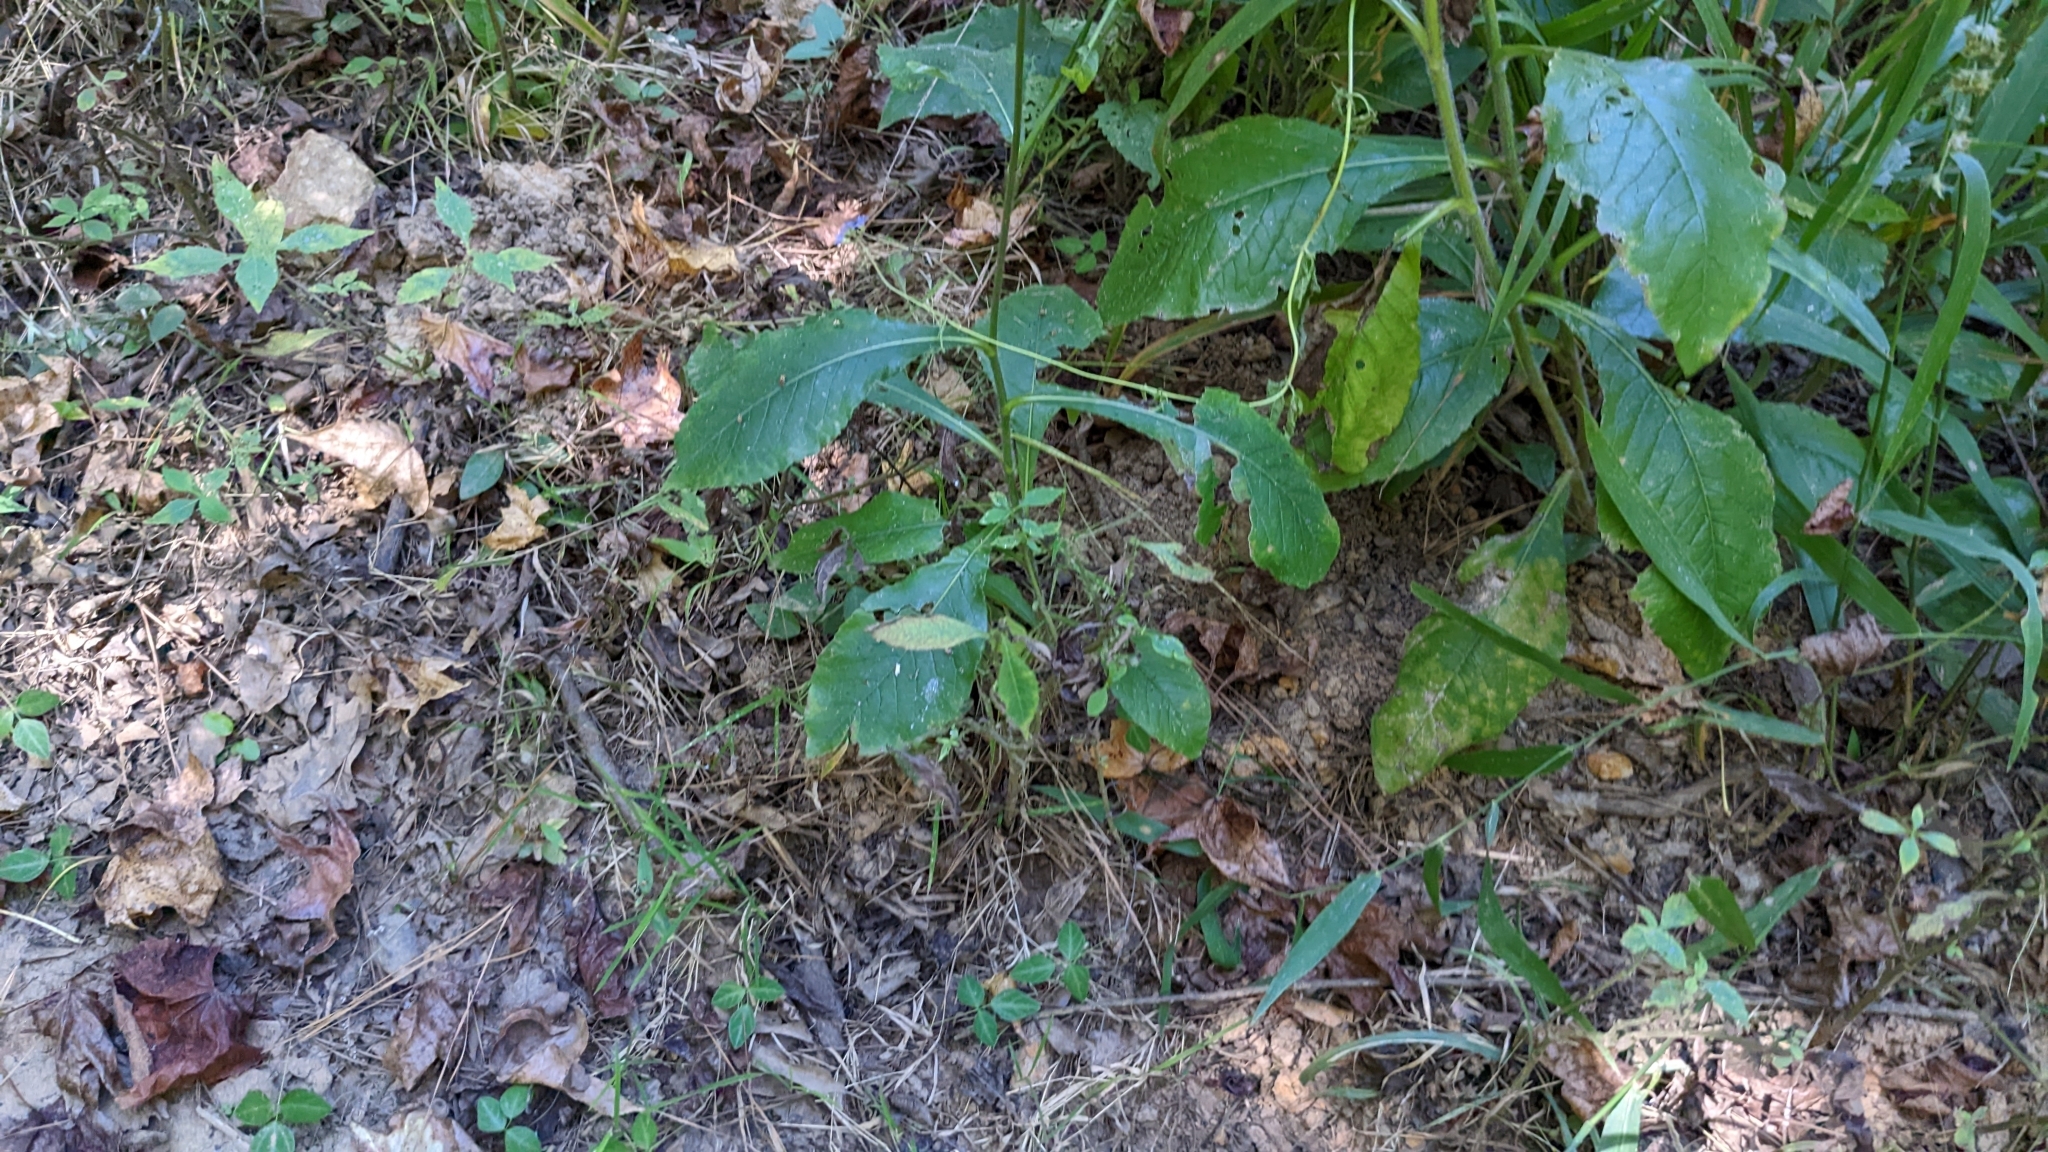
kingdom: Plantae
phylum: Tracheophyta
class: Magnoliopsida
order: Asterales
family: Asteraceae
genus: Elephantopus
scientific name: Elephantopus carolinianus
